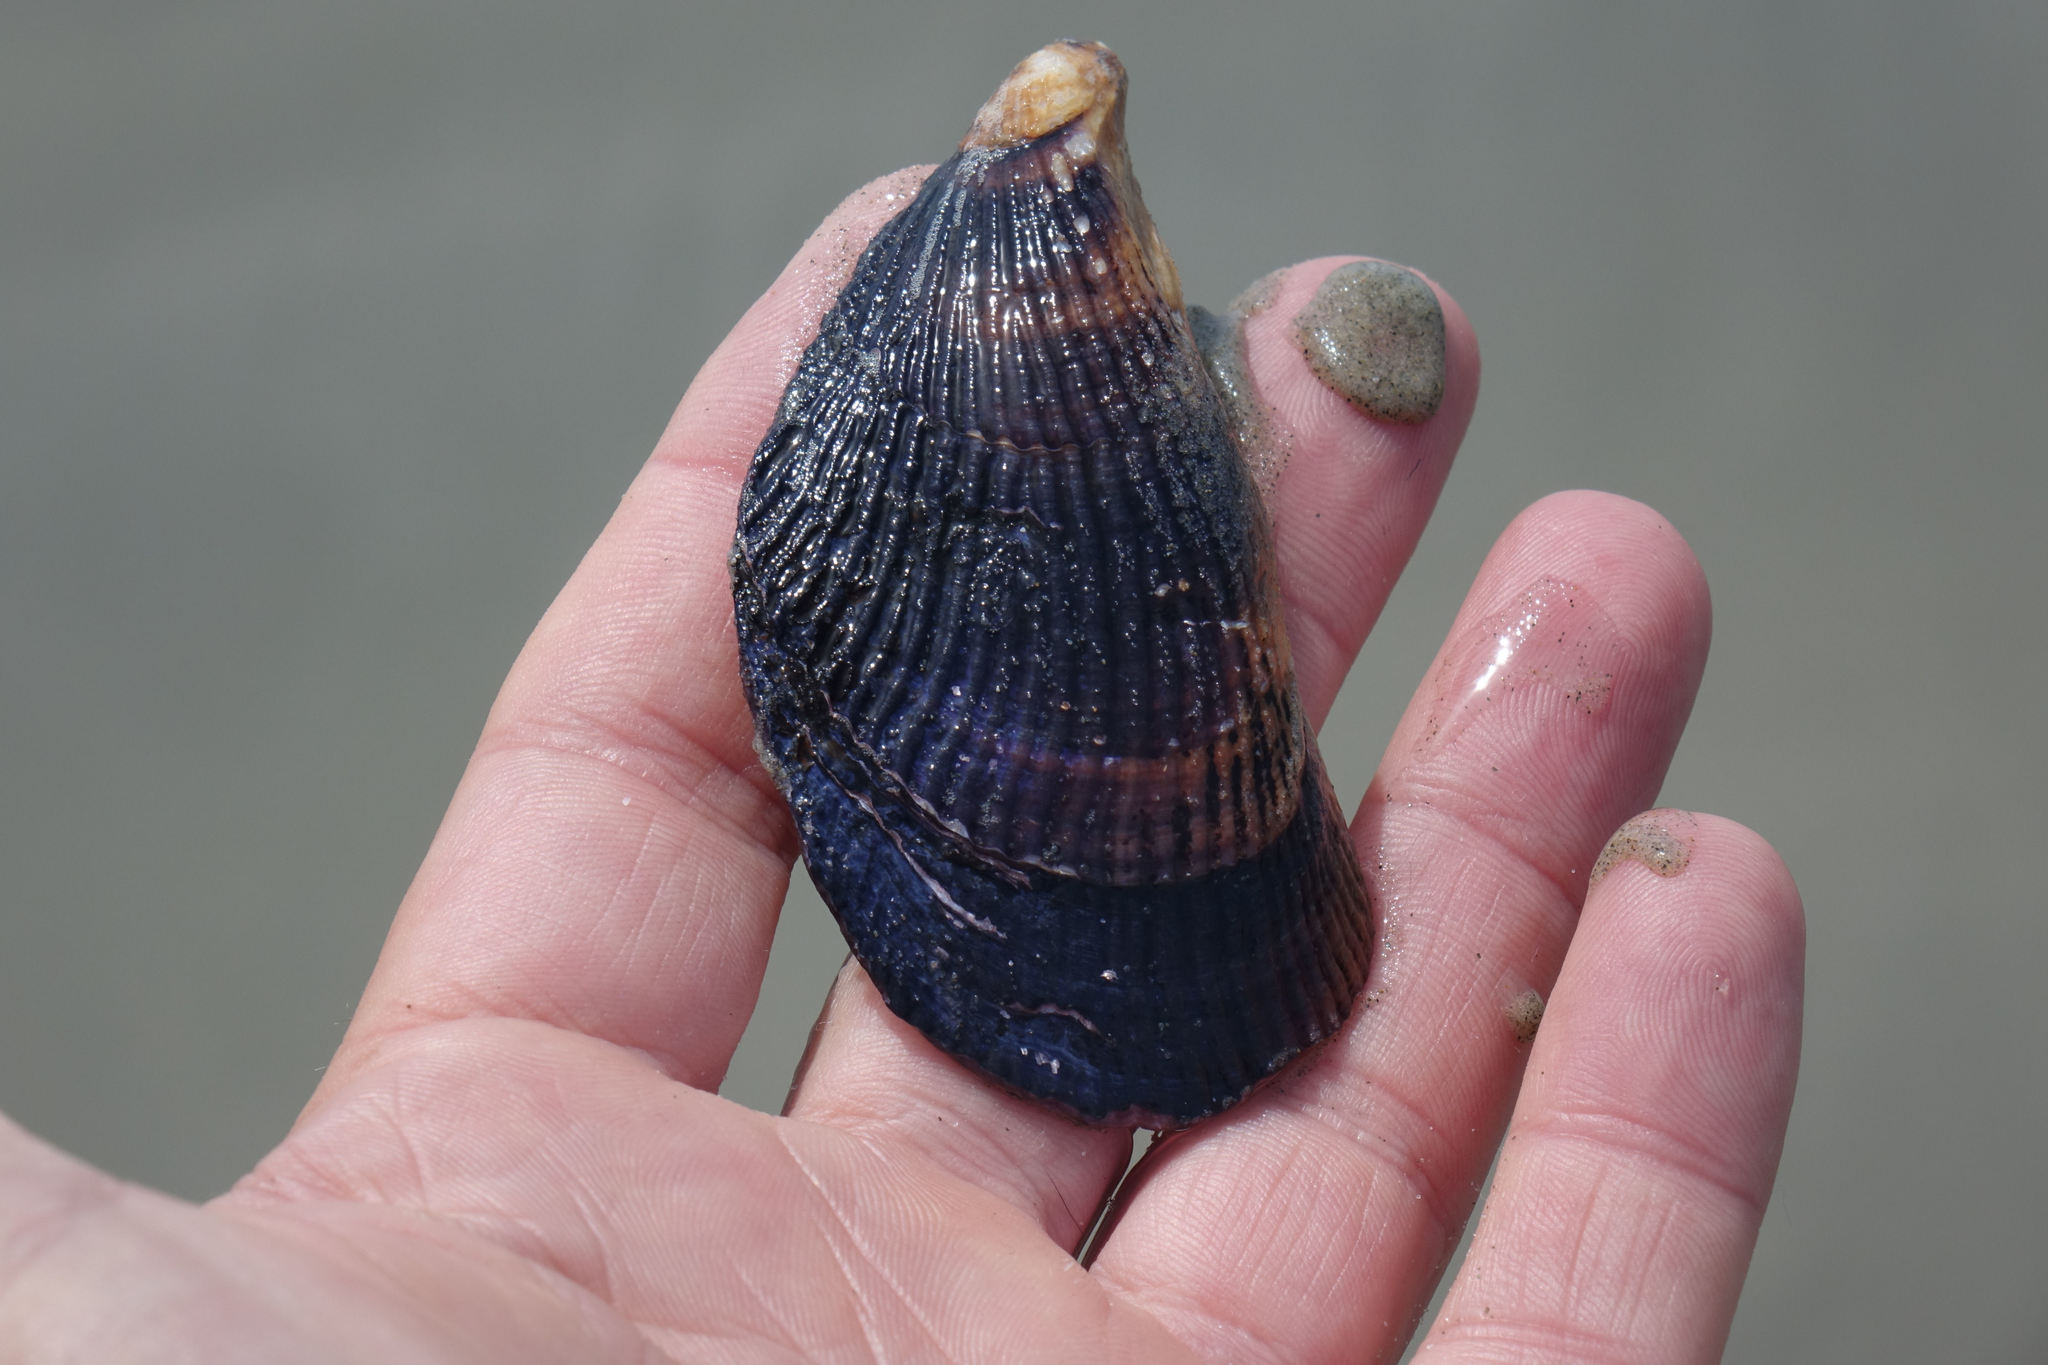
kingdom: Animalia
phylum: Mollusca
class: Bivalvia
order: Mytilida
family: Mytilidae
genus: Aulacomya
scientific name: Aulacomya maoriana
